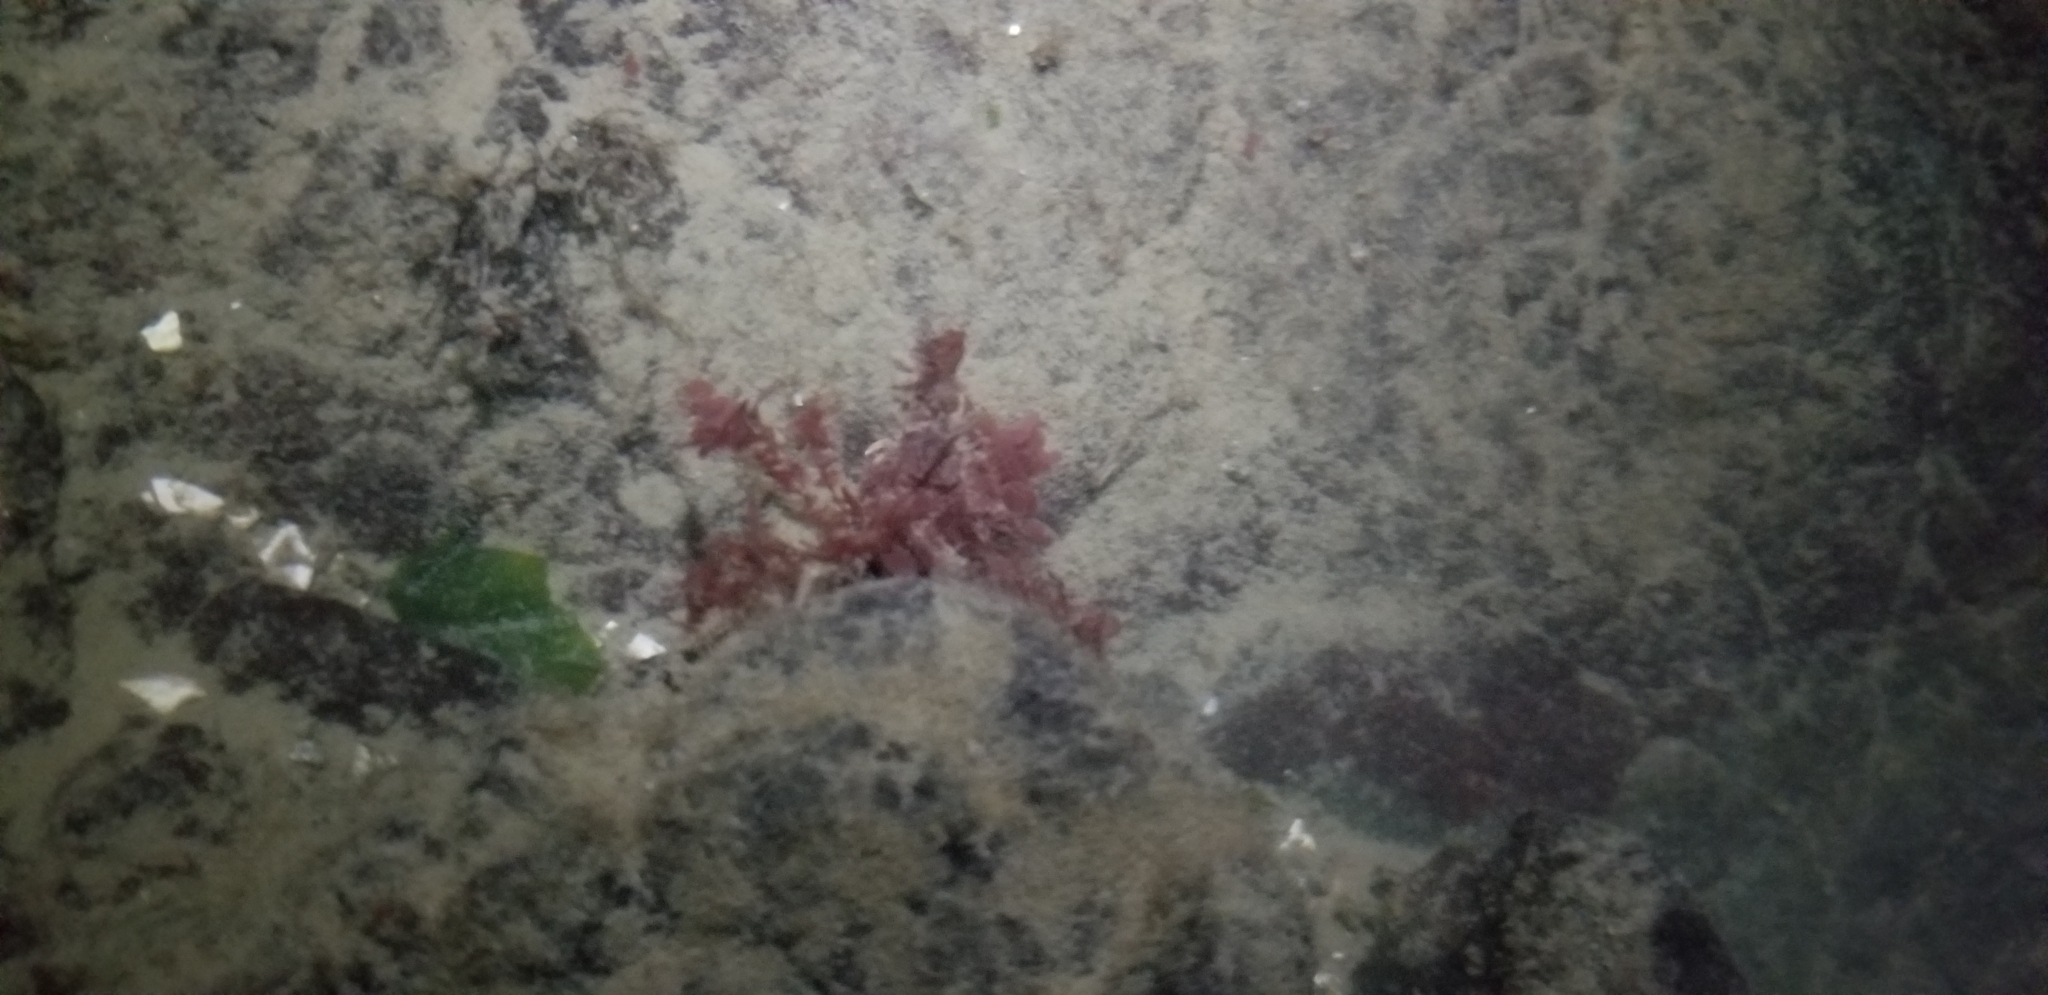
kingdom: Animalia
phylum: Arthropoda
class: Malacostraca
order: Decapoda
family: Oregoniidae
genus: Oregonia
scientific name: Oregonia gracilis
